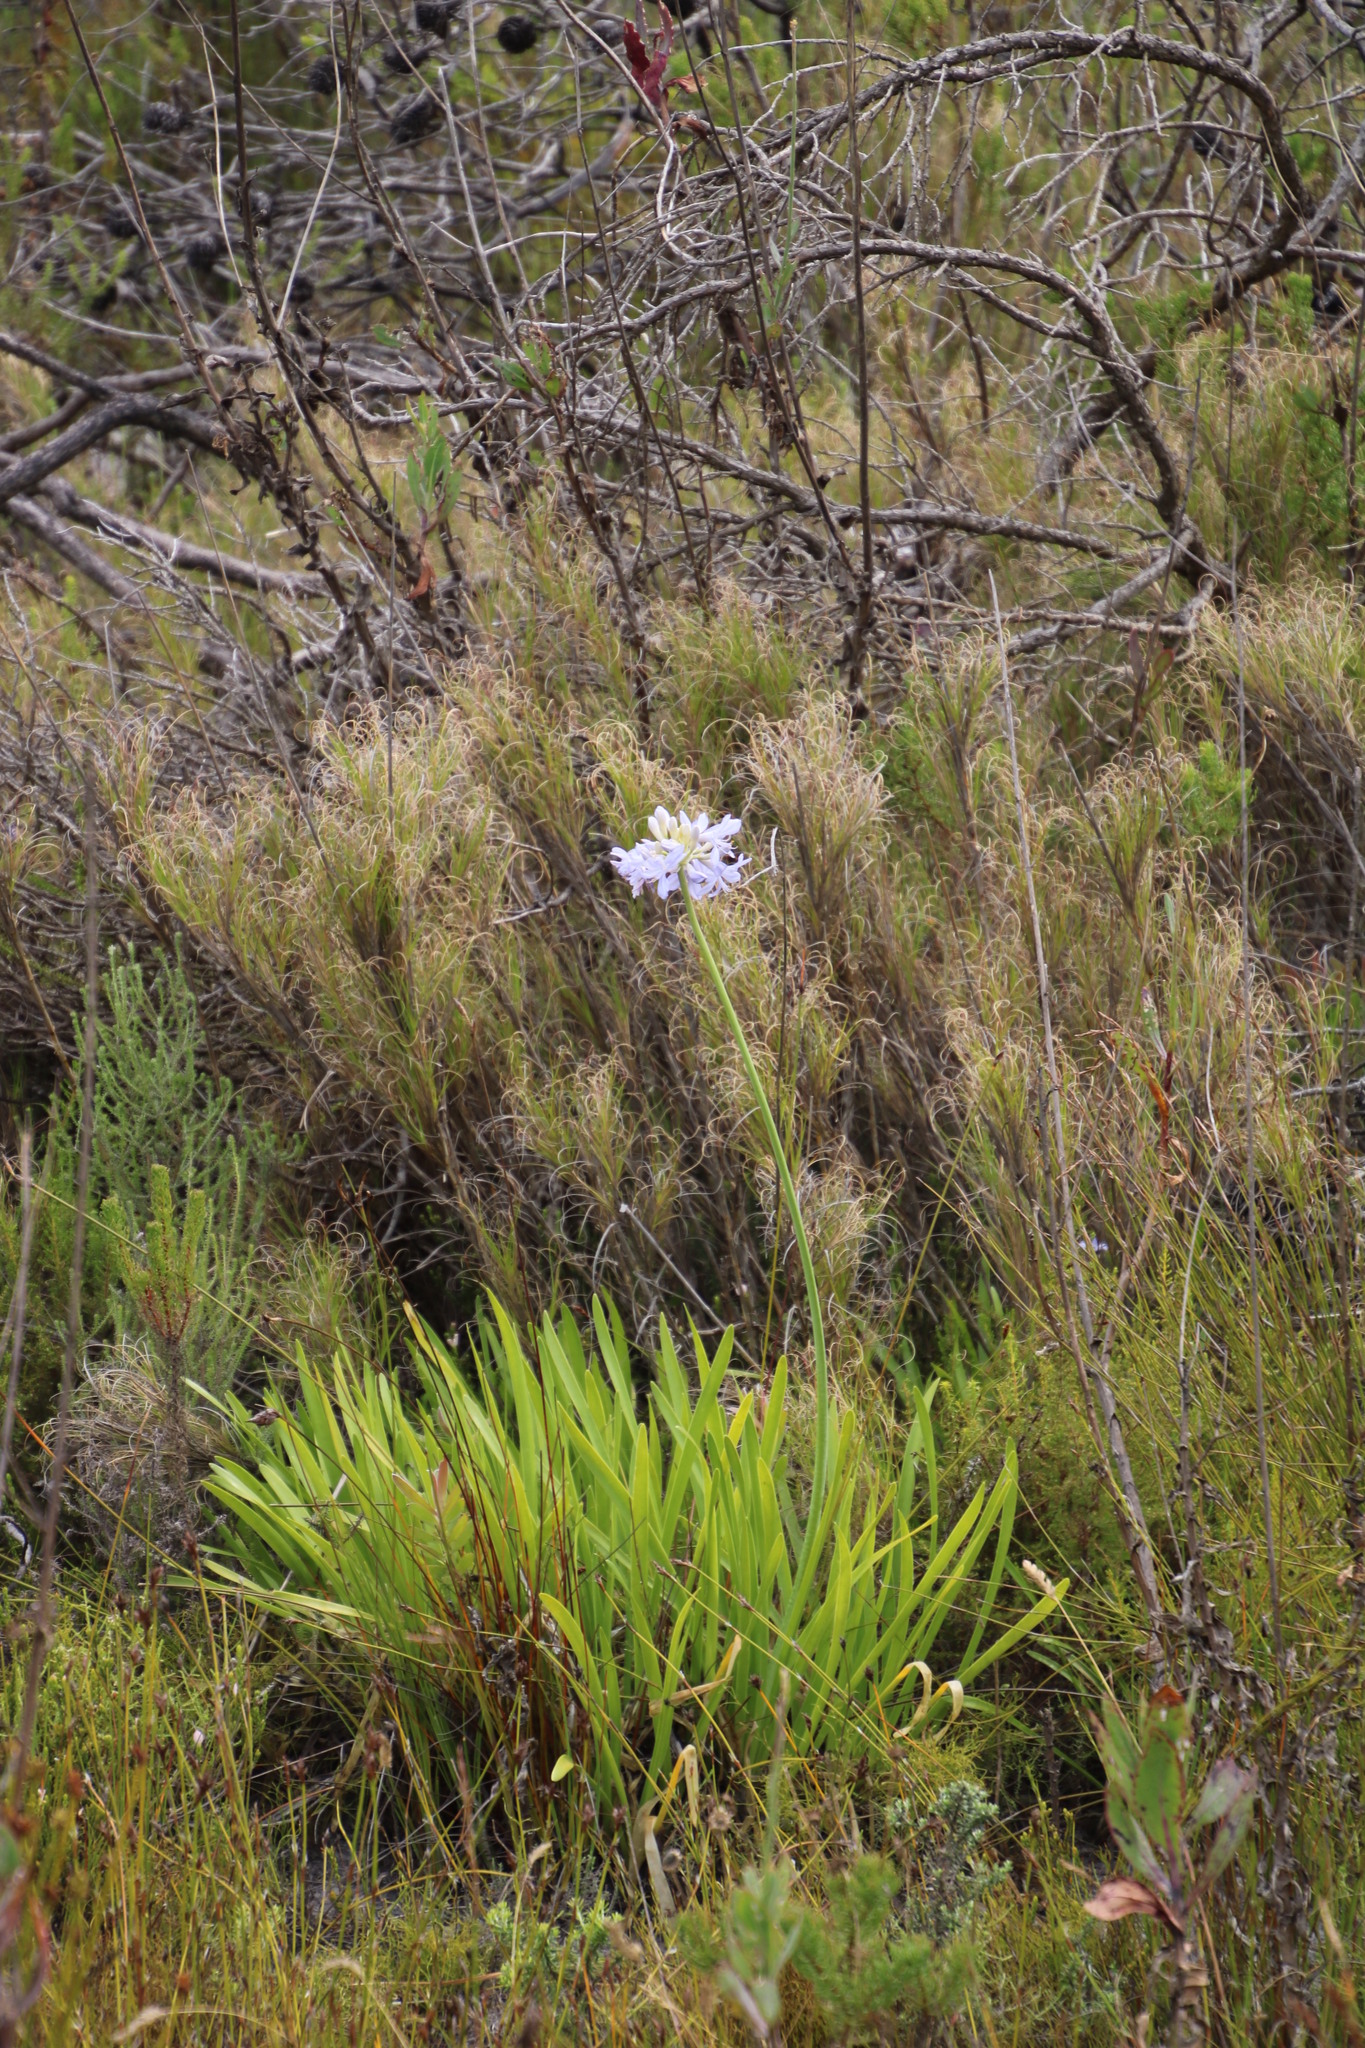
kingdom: Plantae
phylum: Tracheophyta
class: Liliopsida
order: Asparagales
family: Amaryllidaceae
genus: Agapanthus
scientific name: Agapanthus africanus
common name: Lily-of-the-nile
